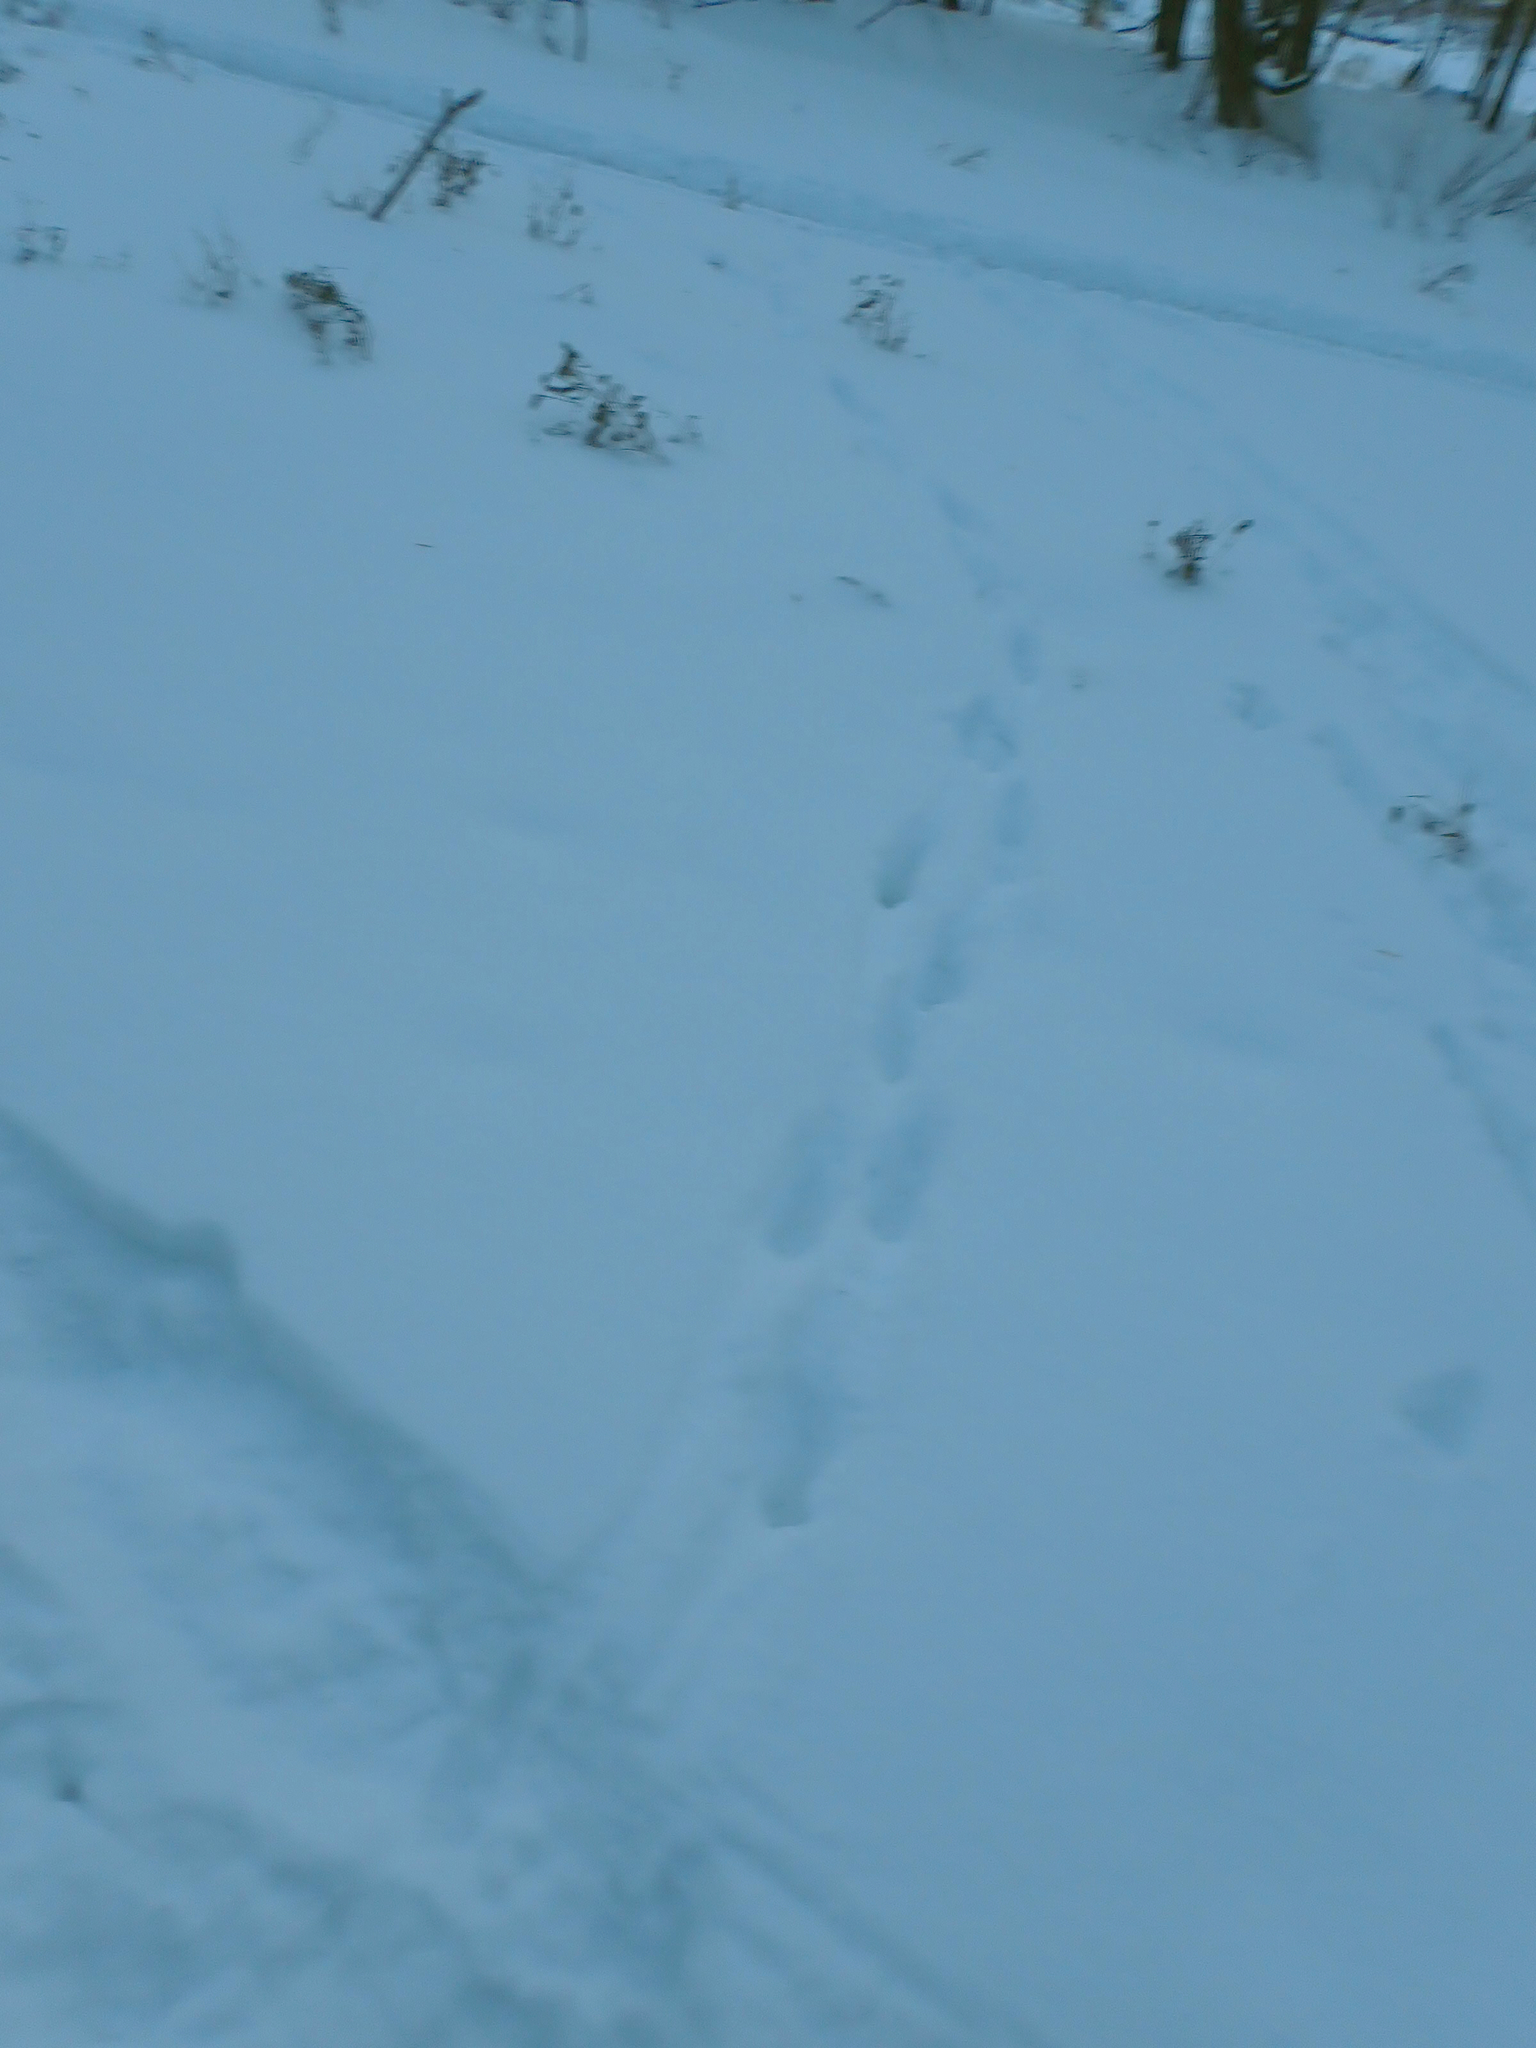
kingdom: Animalia
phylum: Chordata
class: Mammalia
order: Carnivora
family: Canidae
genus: Vulpes
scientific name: Vulpes vulpes
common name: Red fox
